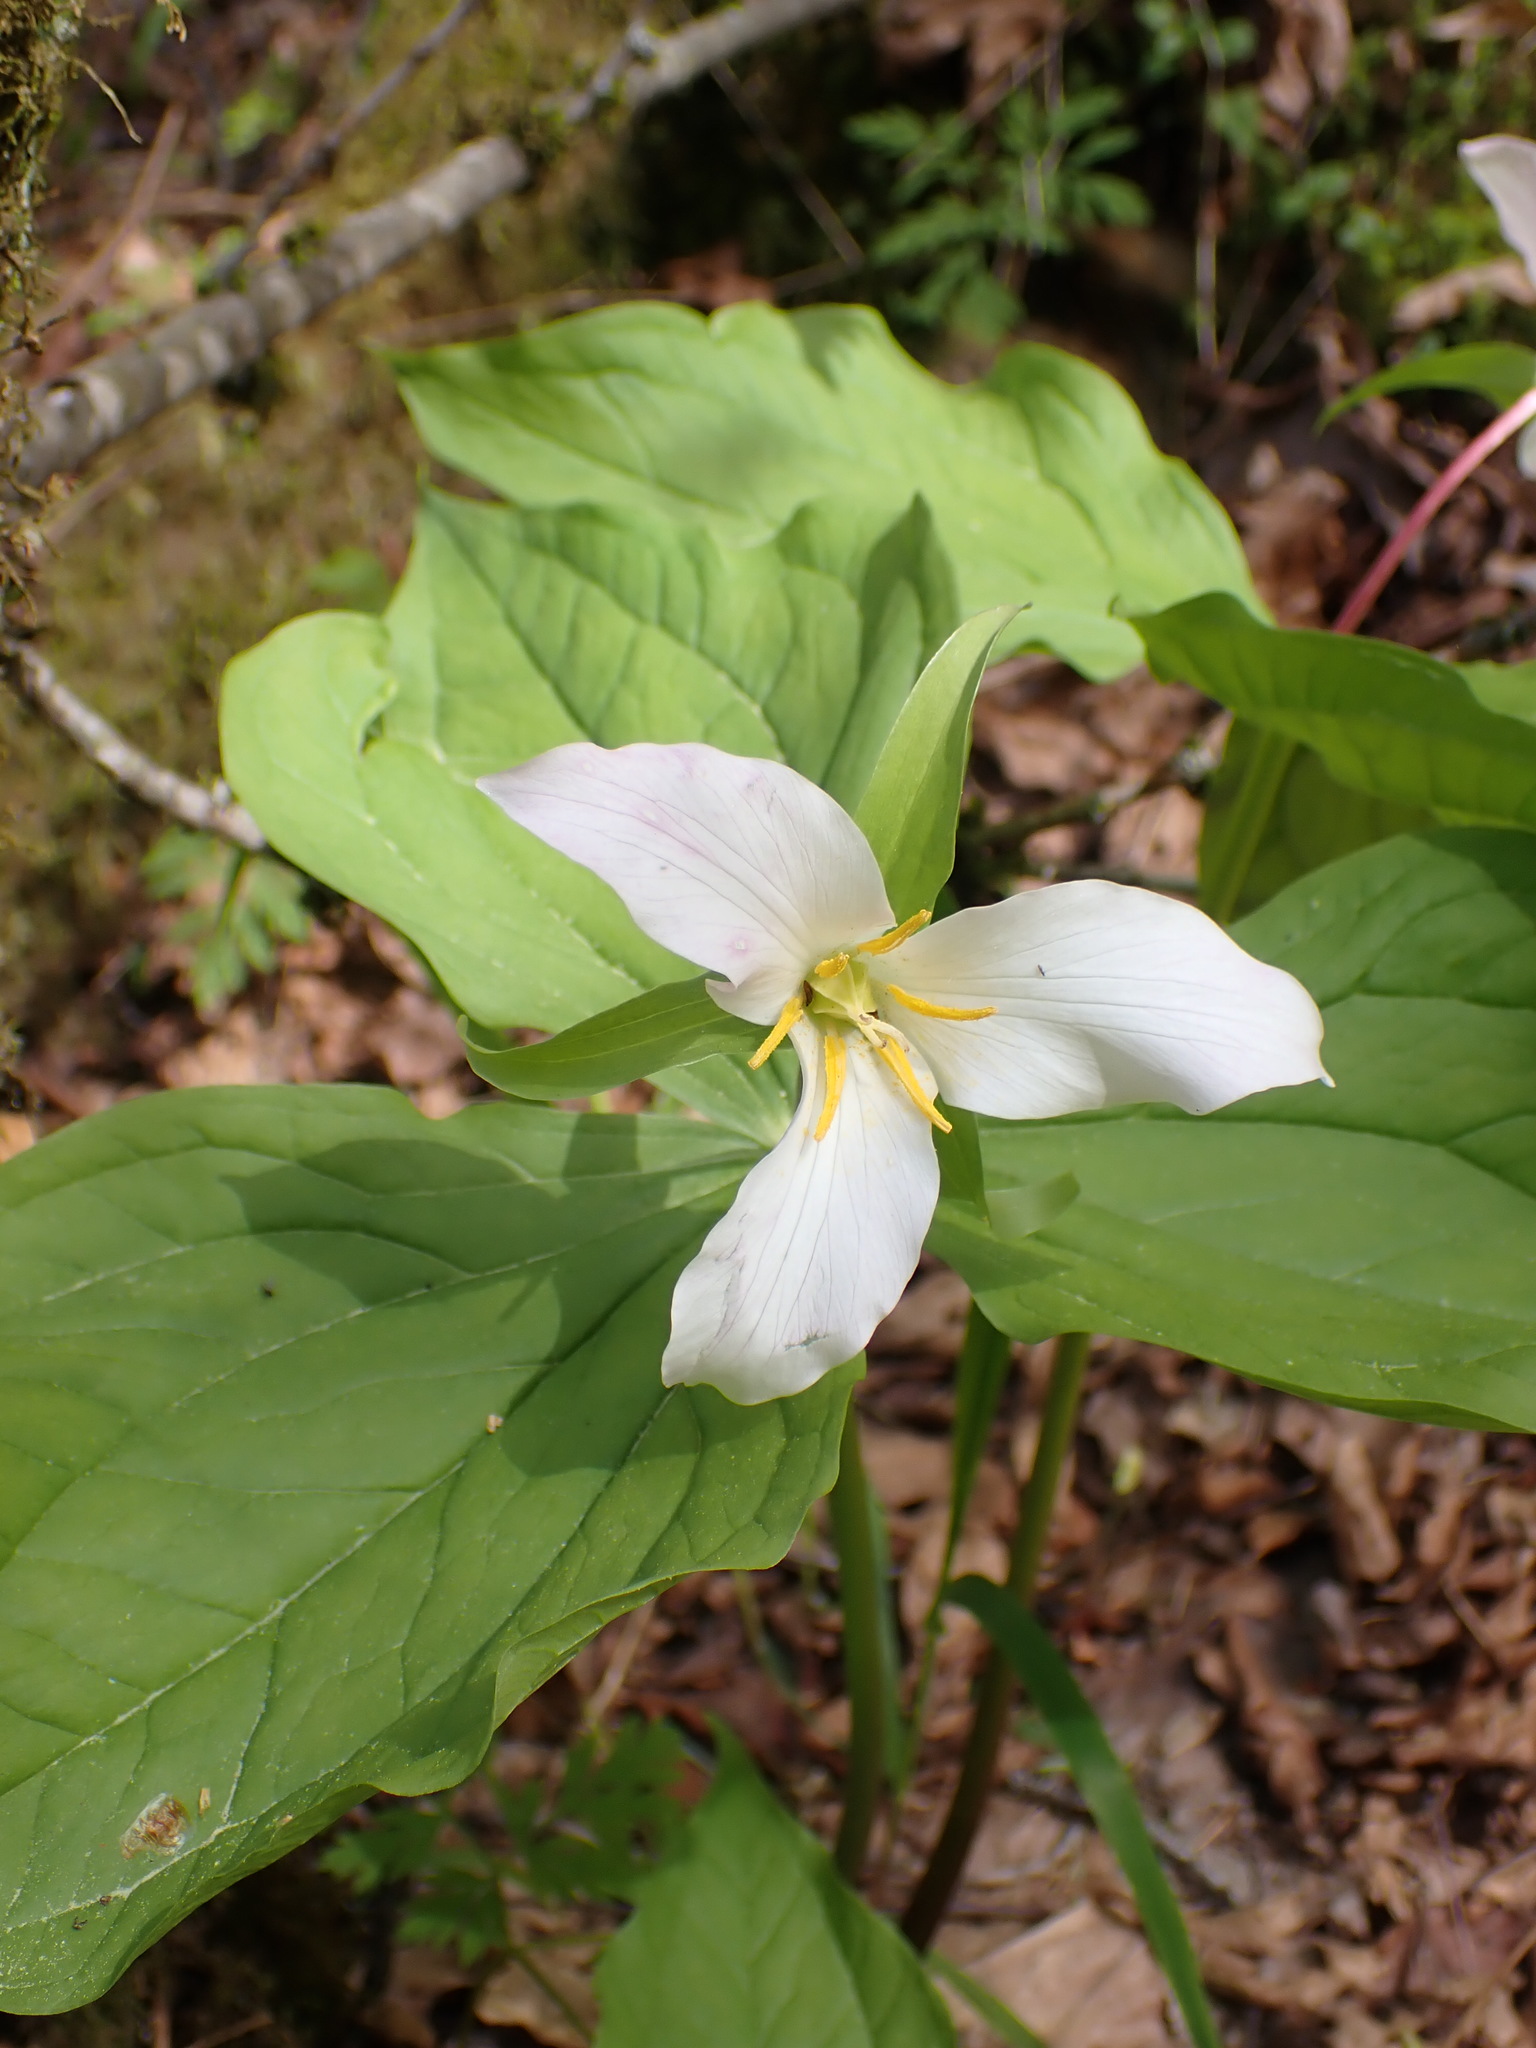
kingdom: Plantae
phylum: Tracheophyta
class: Liliopsida
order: Liliales
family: Melanthiaceae
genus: Trillium
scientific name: Trillium ovatum
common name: Pacific trillium
